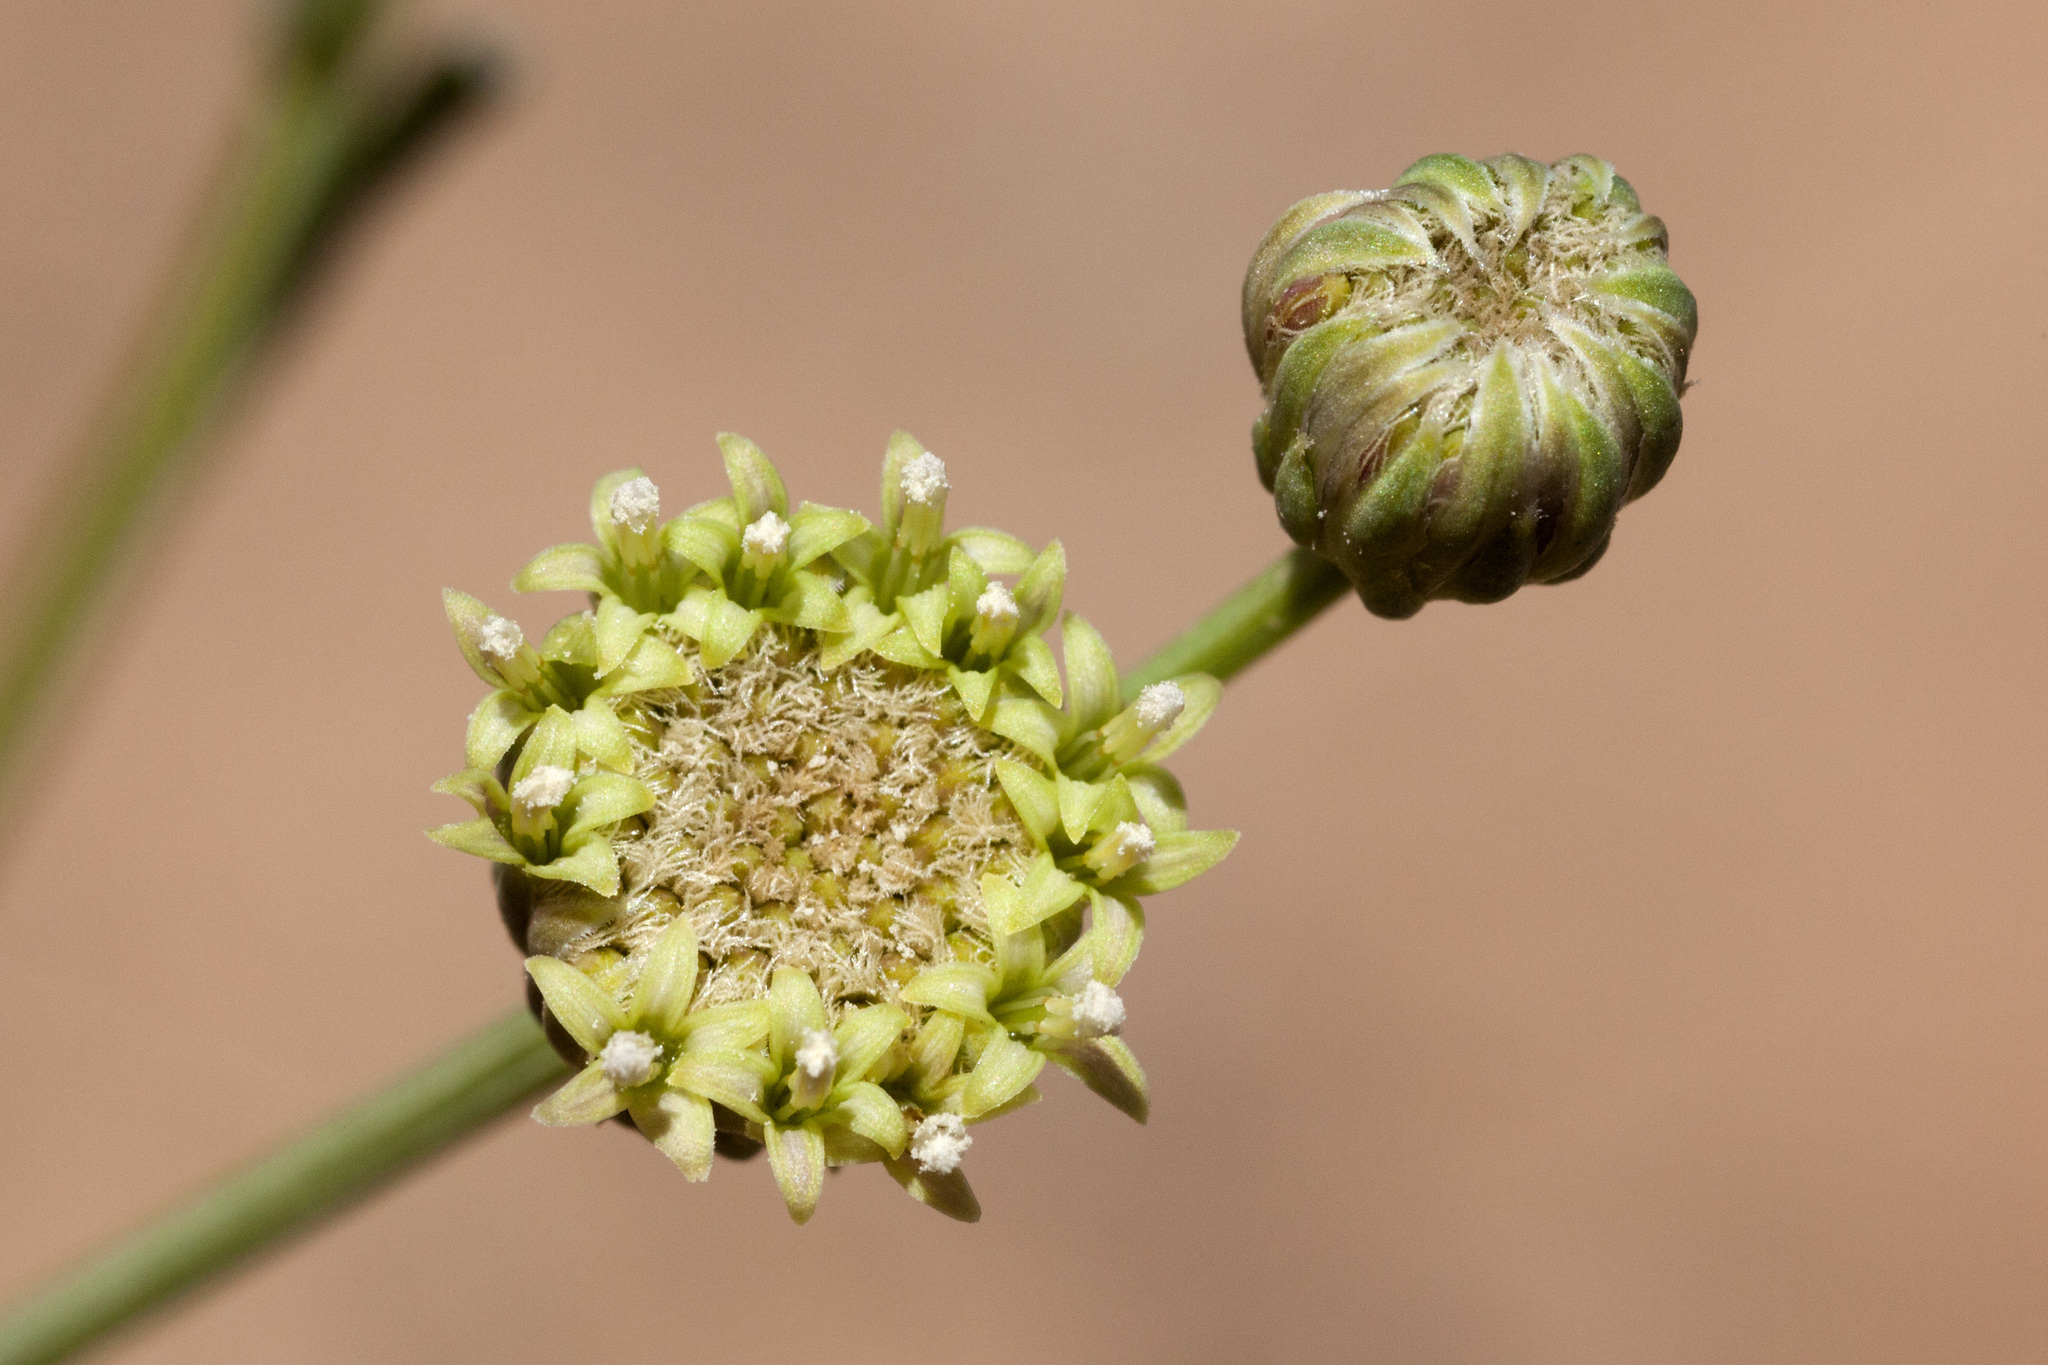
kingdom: Plantae
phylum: Tracheophyta
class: Magnoliopsida
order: Asterales
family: Asteraceae
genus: Baccharis
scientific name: Baccharis wrightii
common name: Wright's baccharis
